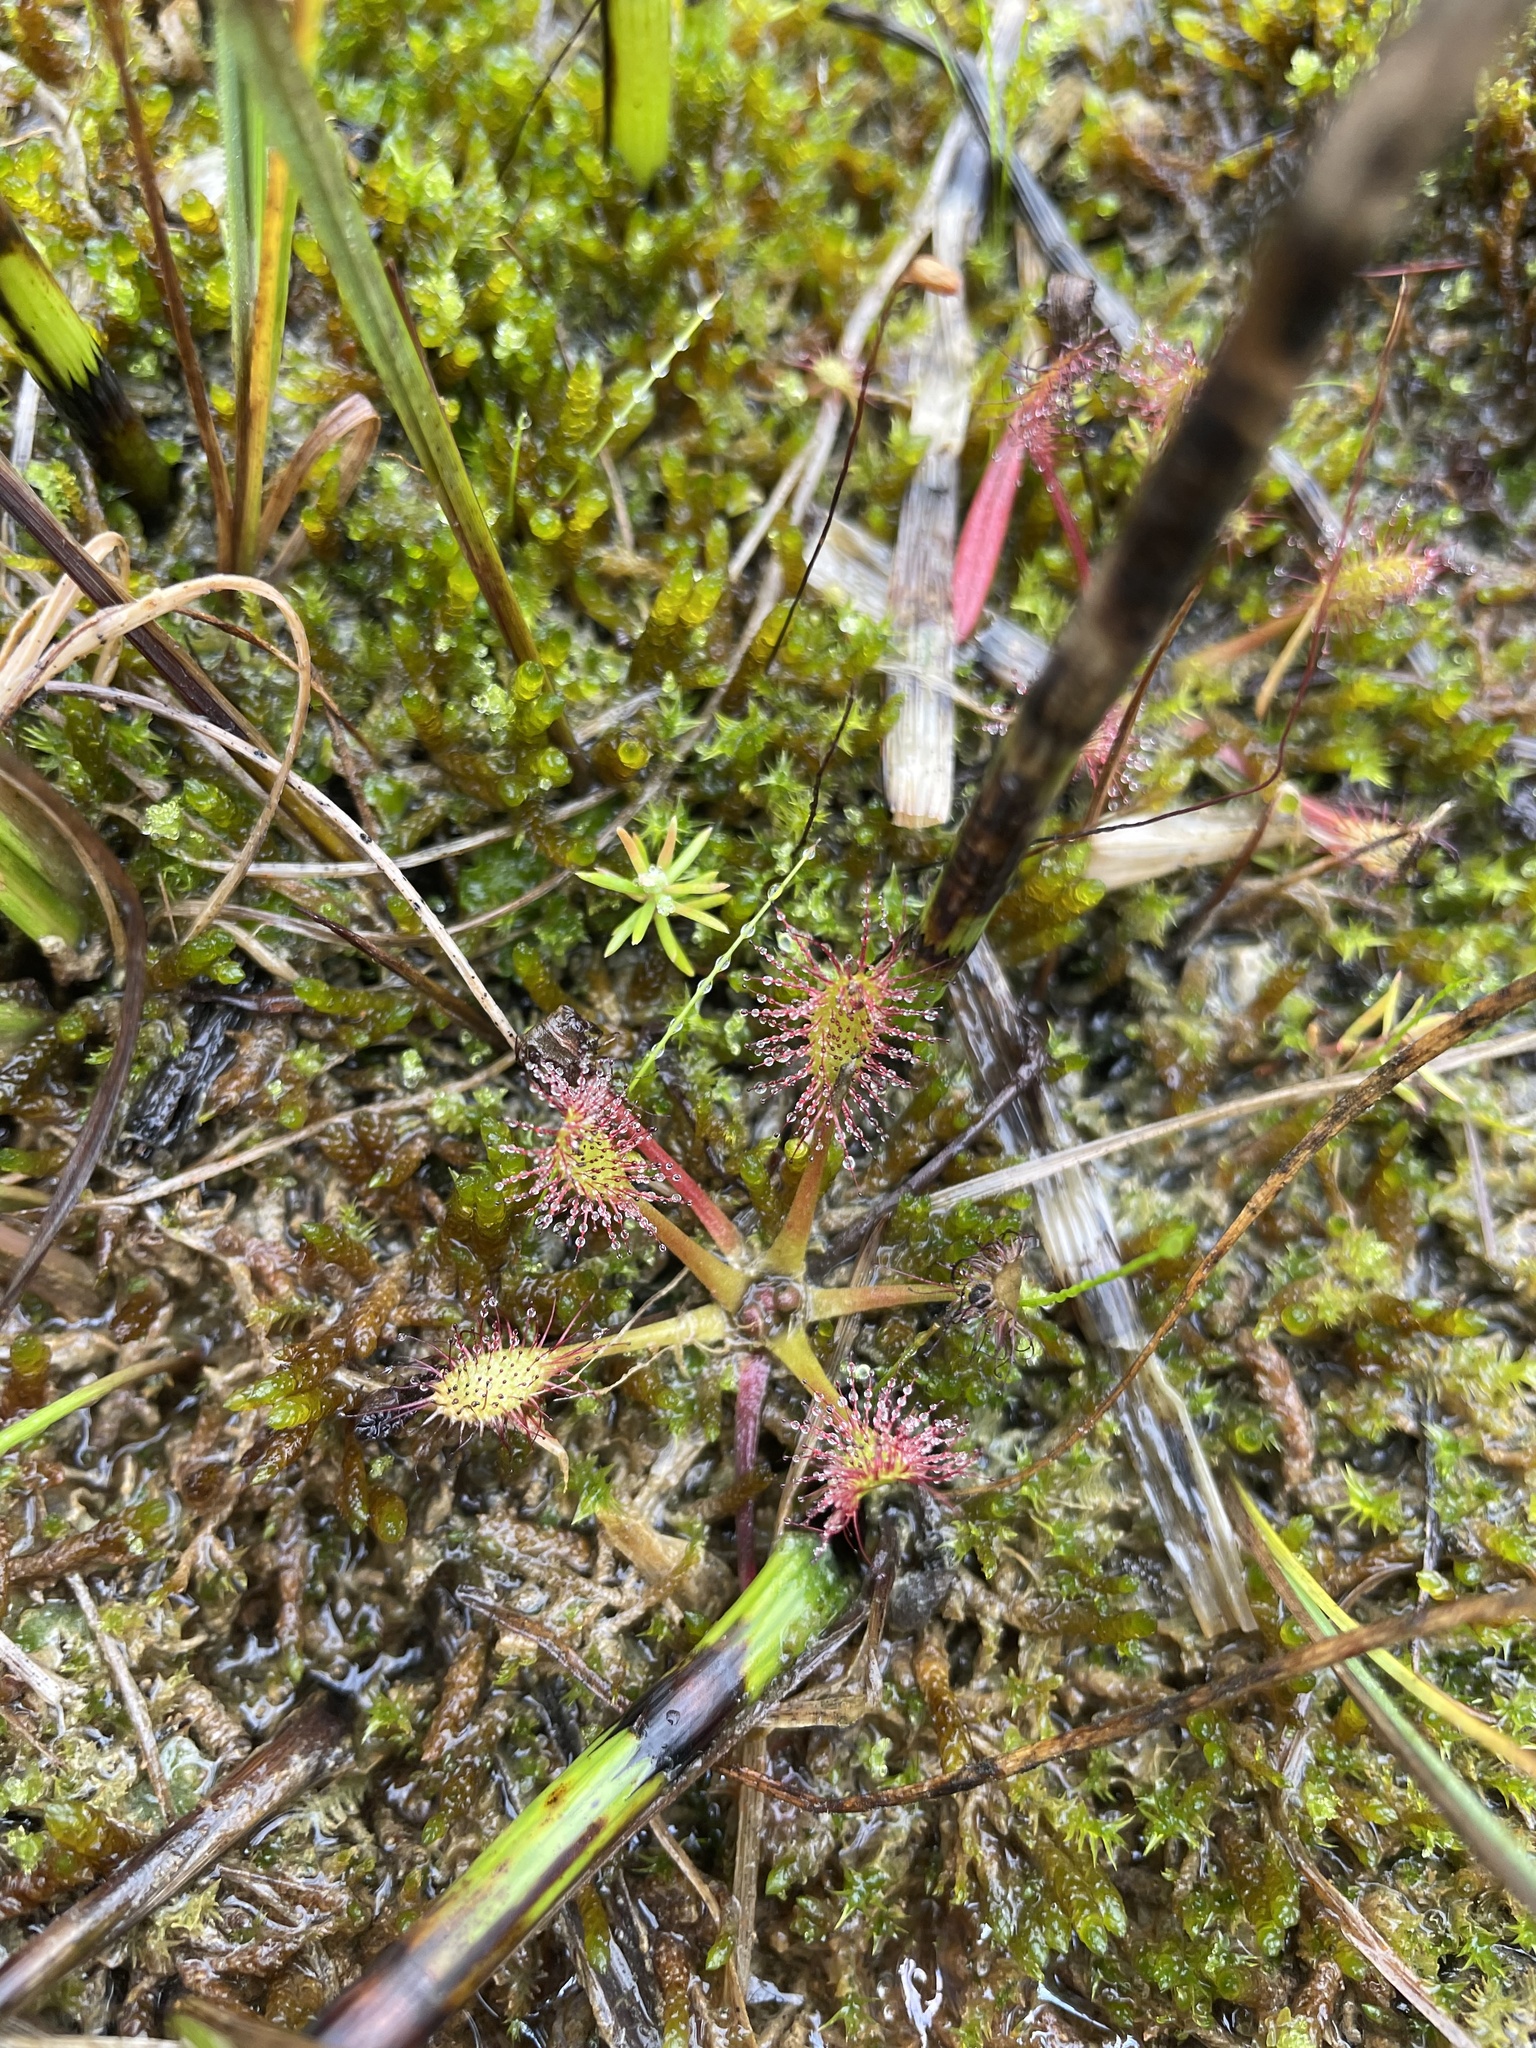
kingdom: Plantae
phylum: Tracheophyta
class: Magnoliopsida
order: Caryophyllales
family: Droseraceae
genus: Drosera
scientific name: Drosera anglica
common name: Great sundew
